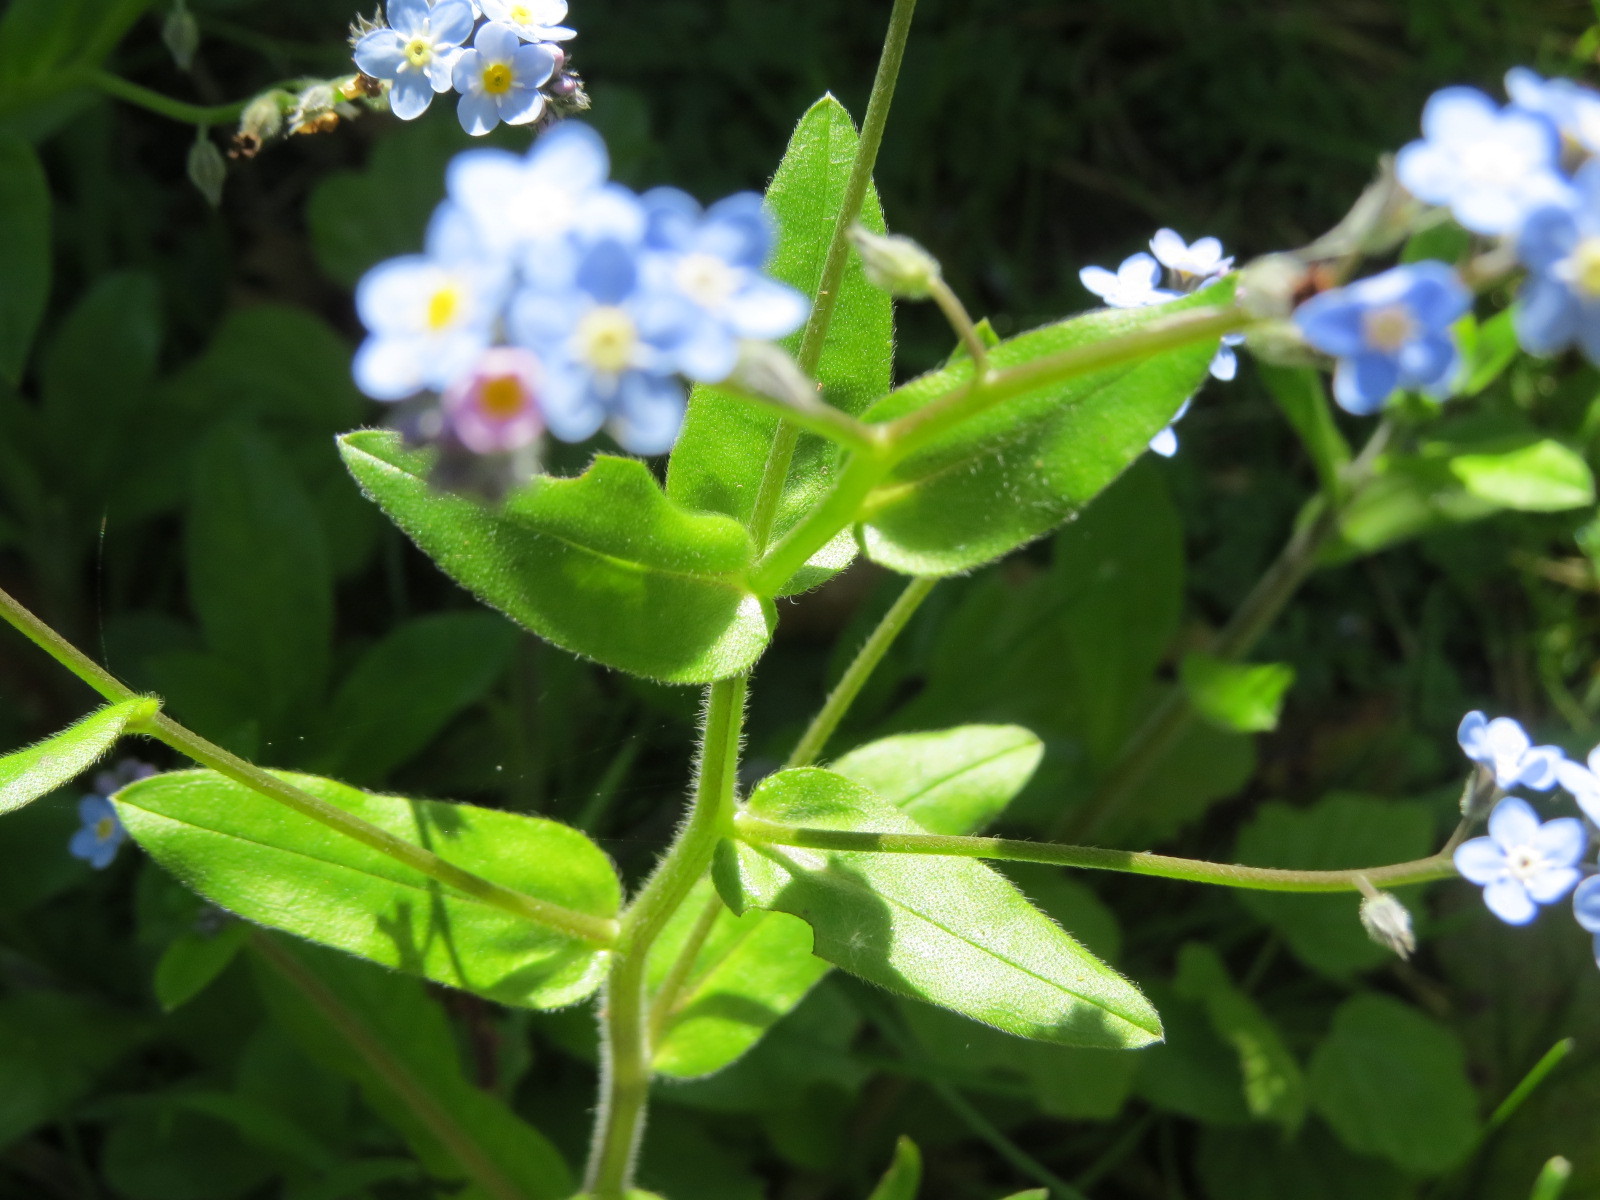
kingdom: Plantae
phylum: Tracheophyta
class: Magnoliopsida
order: Boraginales
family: Boraginaceae
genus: Myosotis
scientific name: Myosotis latifolia
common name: Broadleaf forget-me-not
